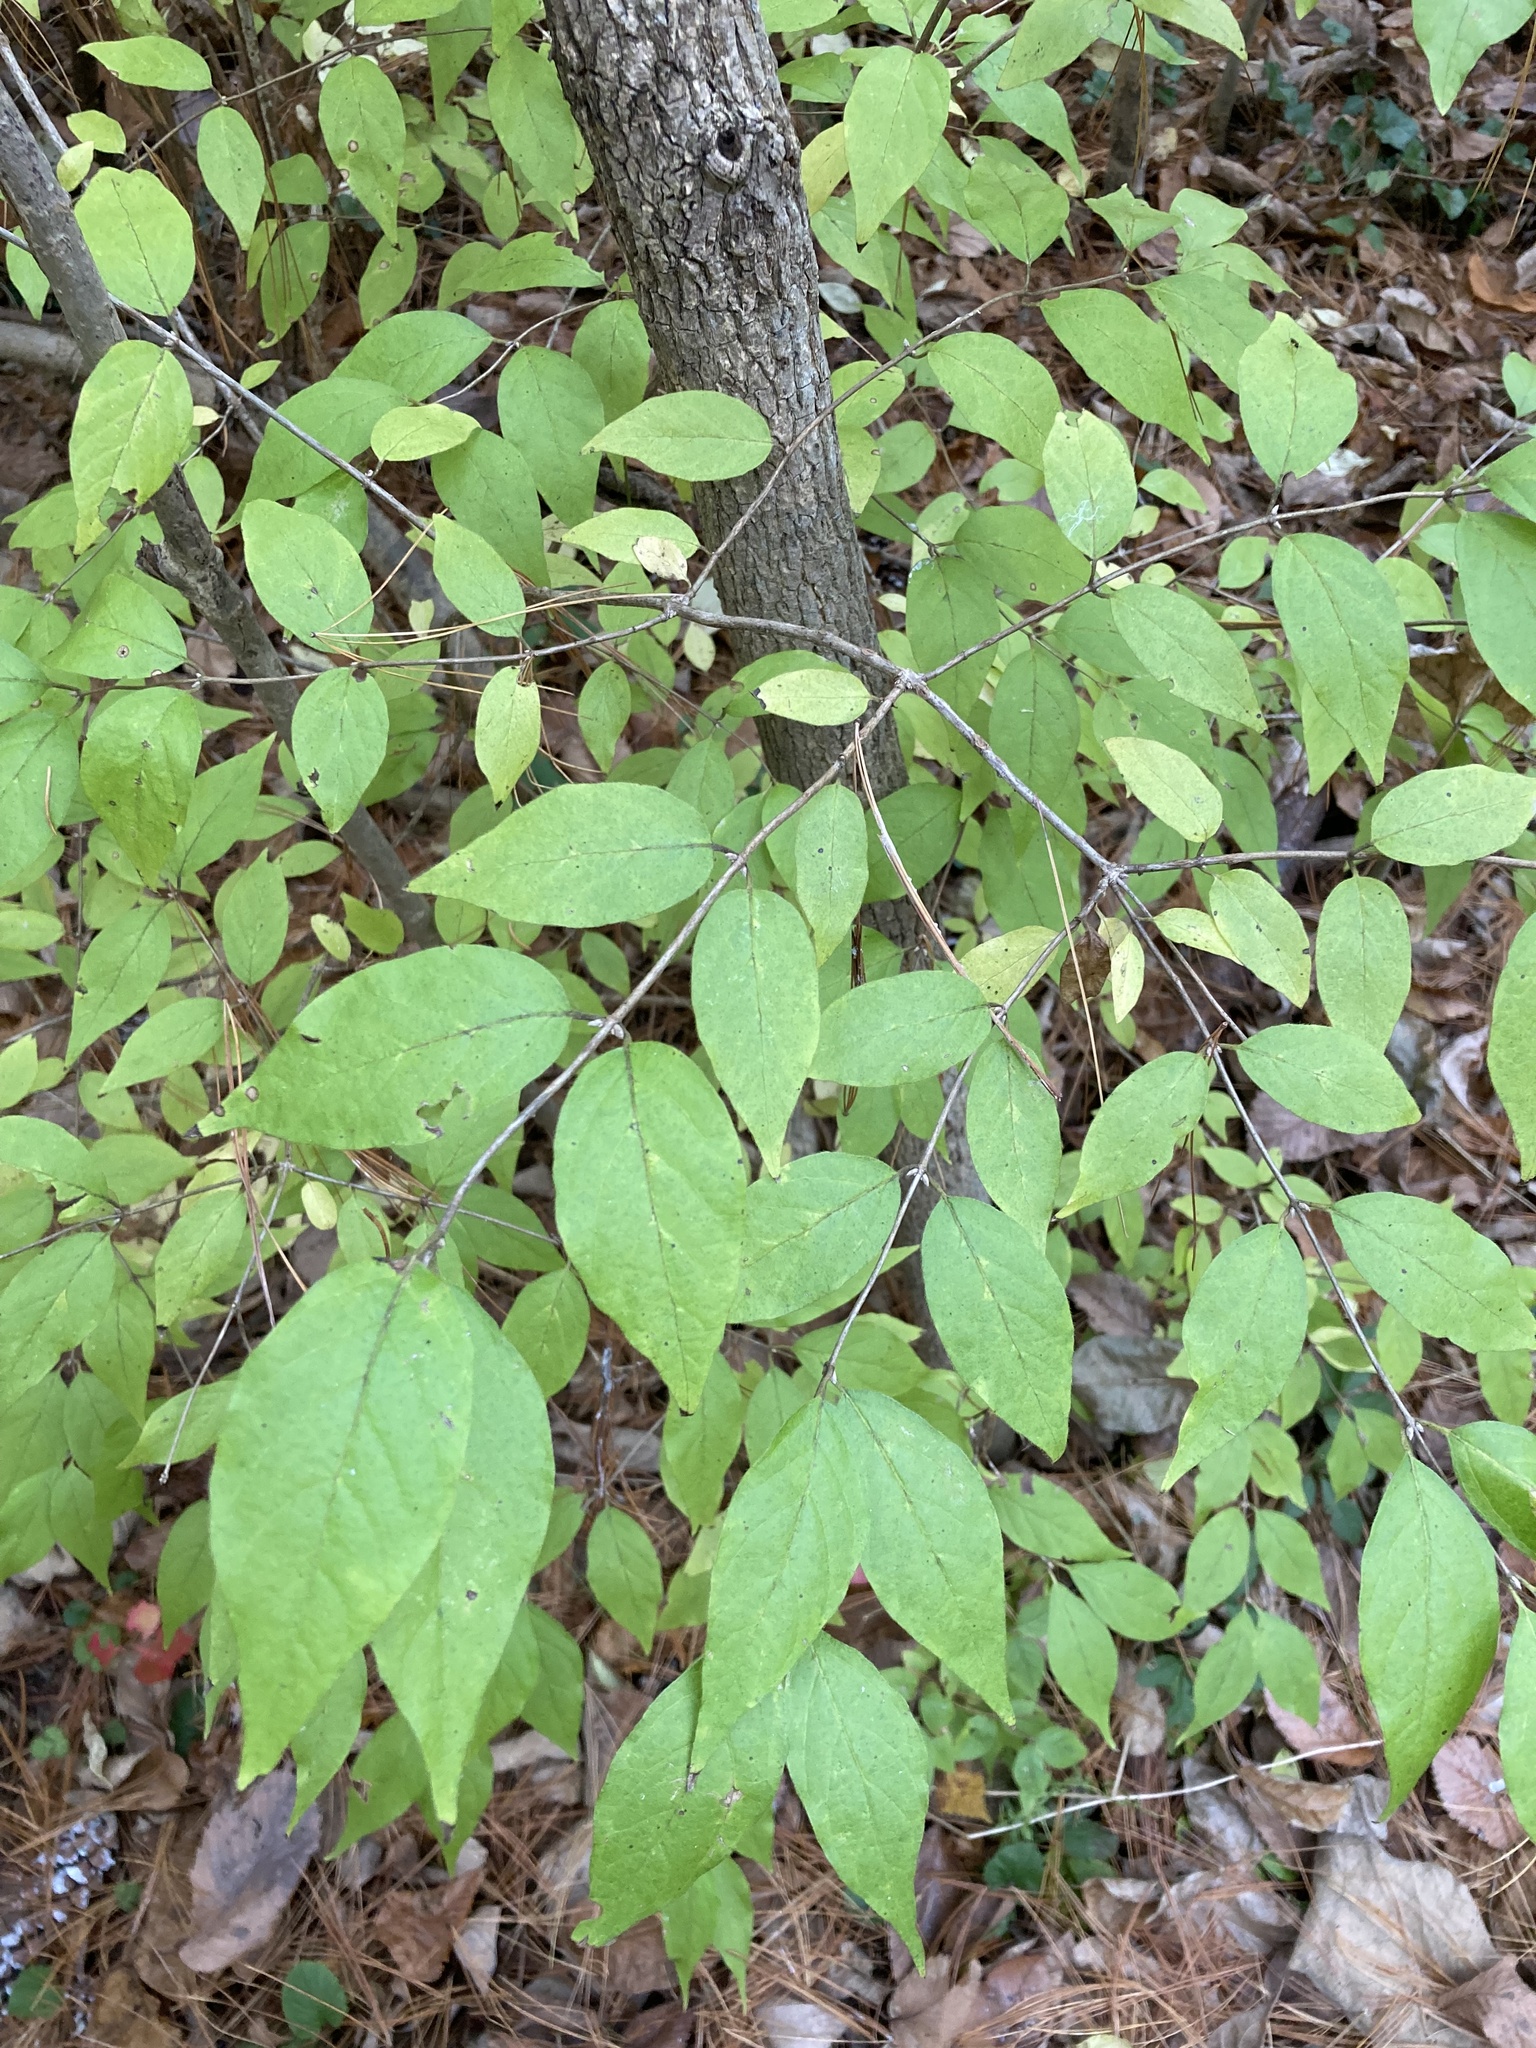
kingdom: Plantae
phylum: Tracheophyta
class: Magnoliopsida
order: Dipsacales
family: Caprifoliaceae
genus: Lonicera
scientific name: Lonicera maackii
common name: Amur honeysuckle
